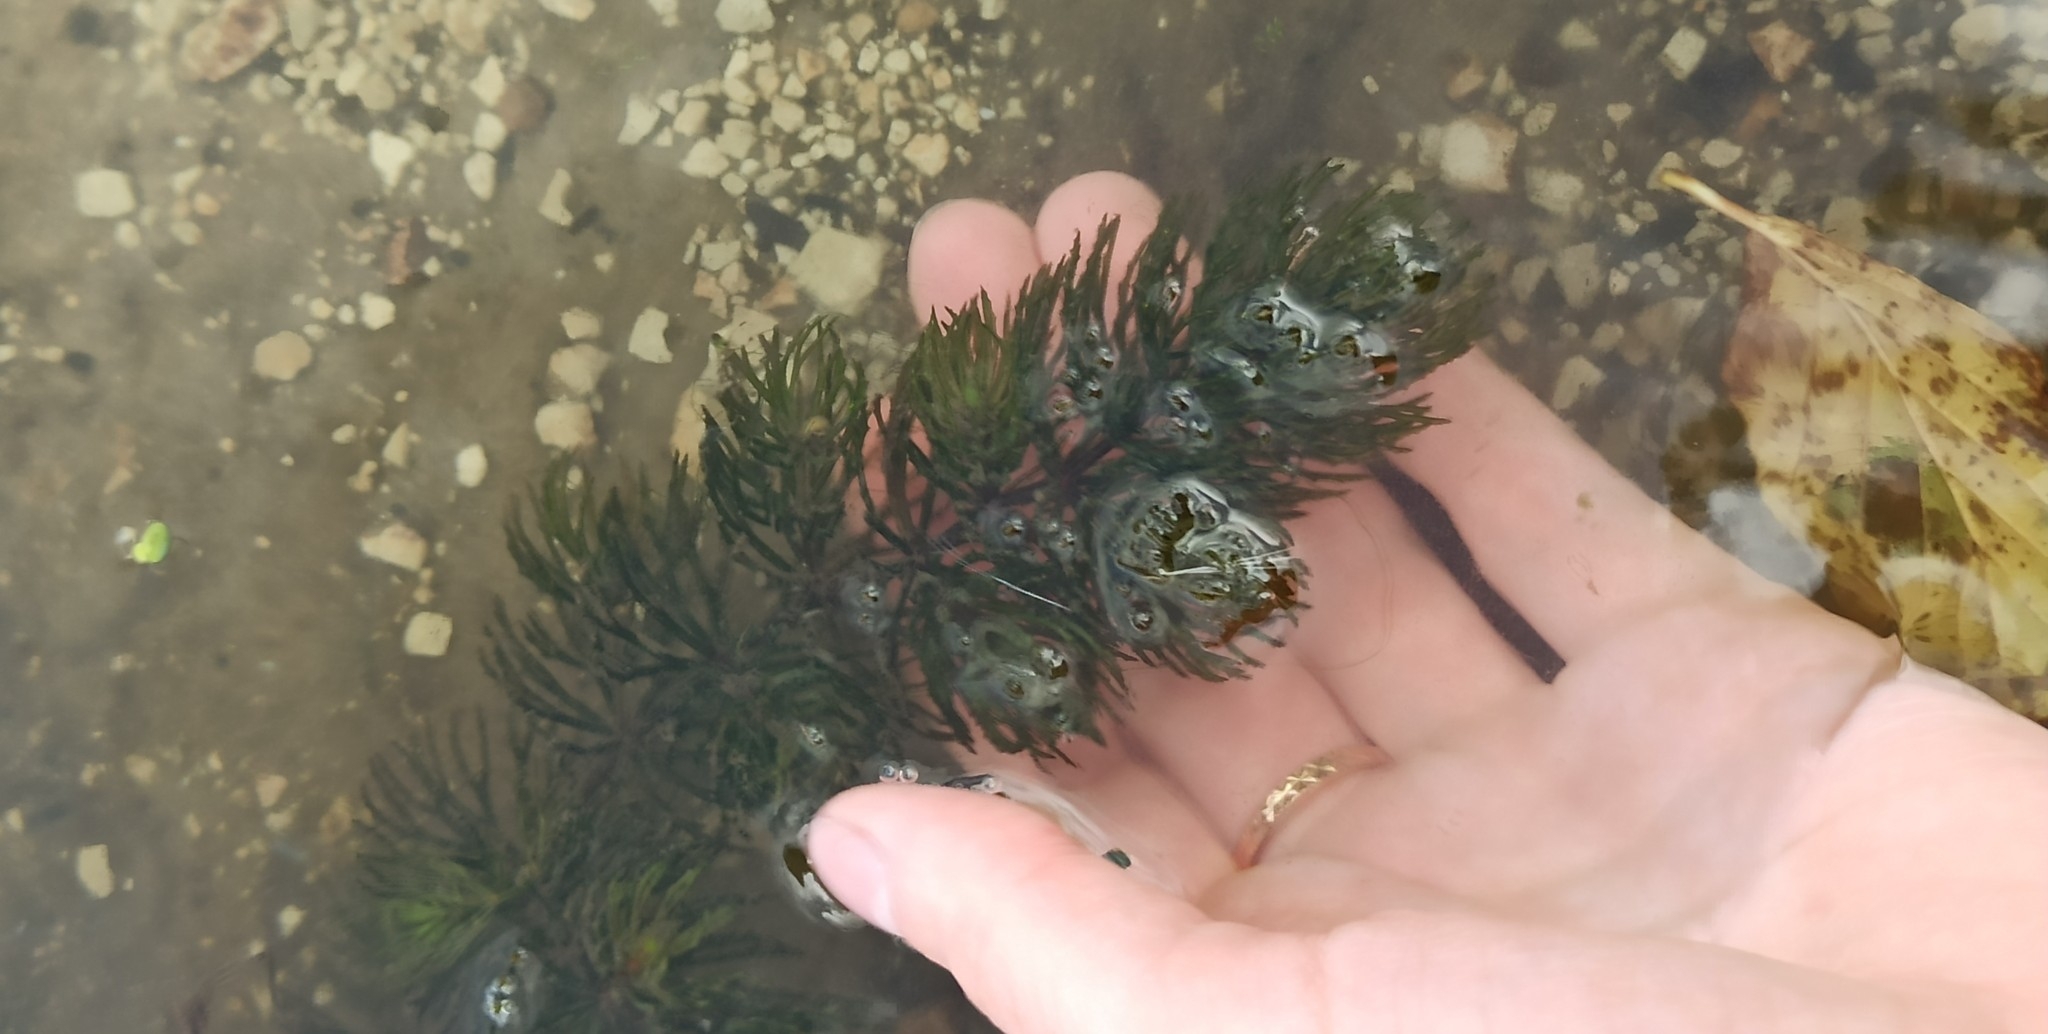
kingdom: Plantae
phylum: Tracheophyta
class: Magnoliopsida
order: Ceratophyllales
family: Ceratophyllaceae
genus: Ceratophyllum
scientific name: Ceratophyllum demersum
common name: Rigid hornwort
